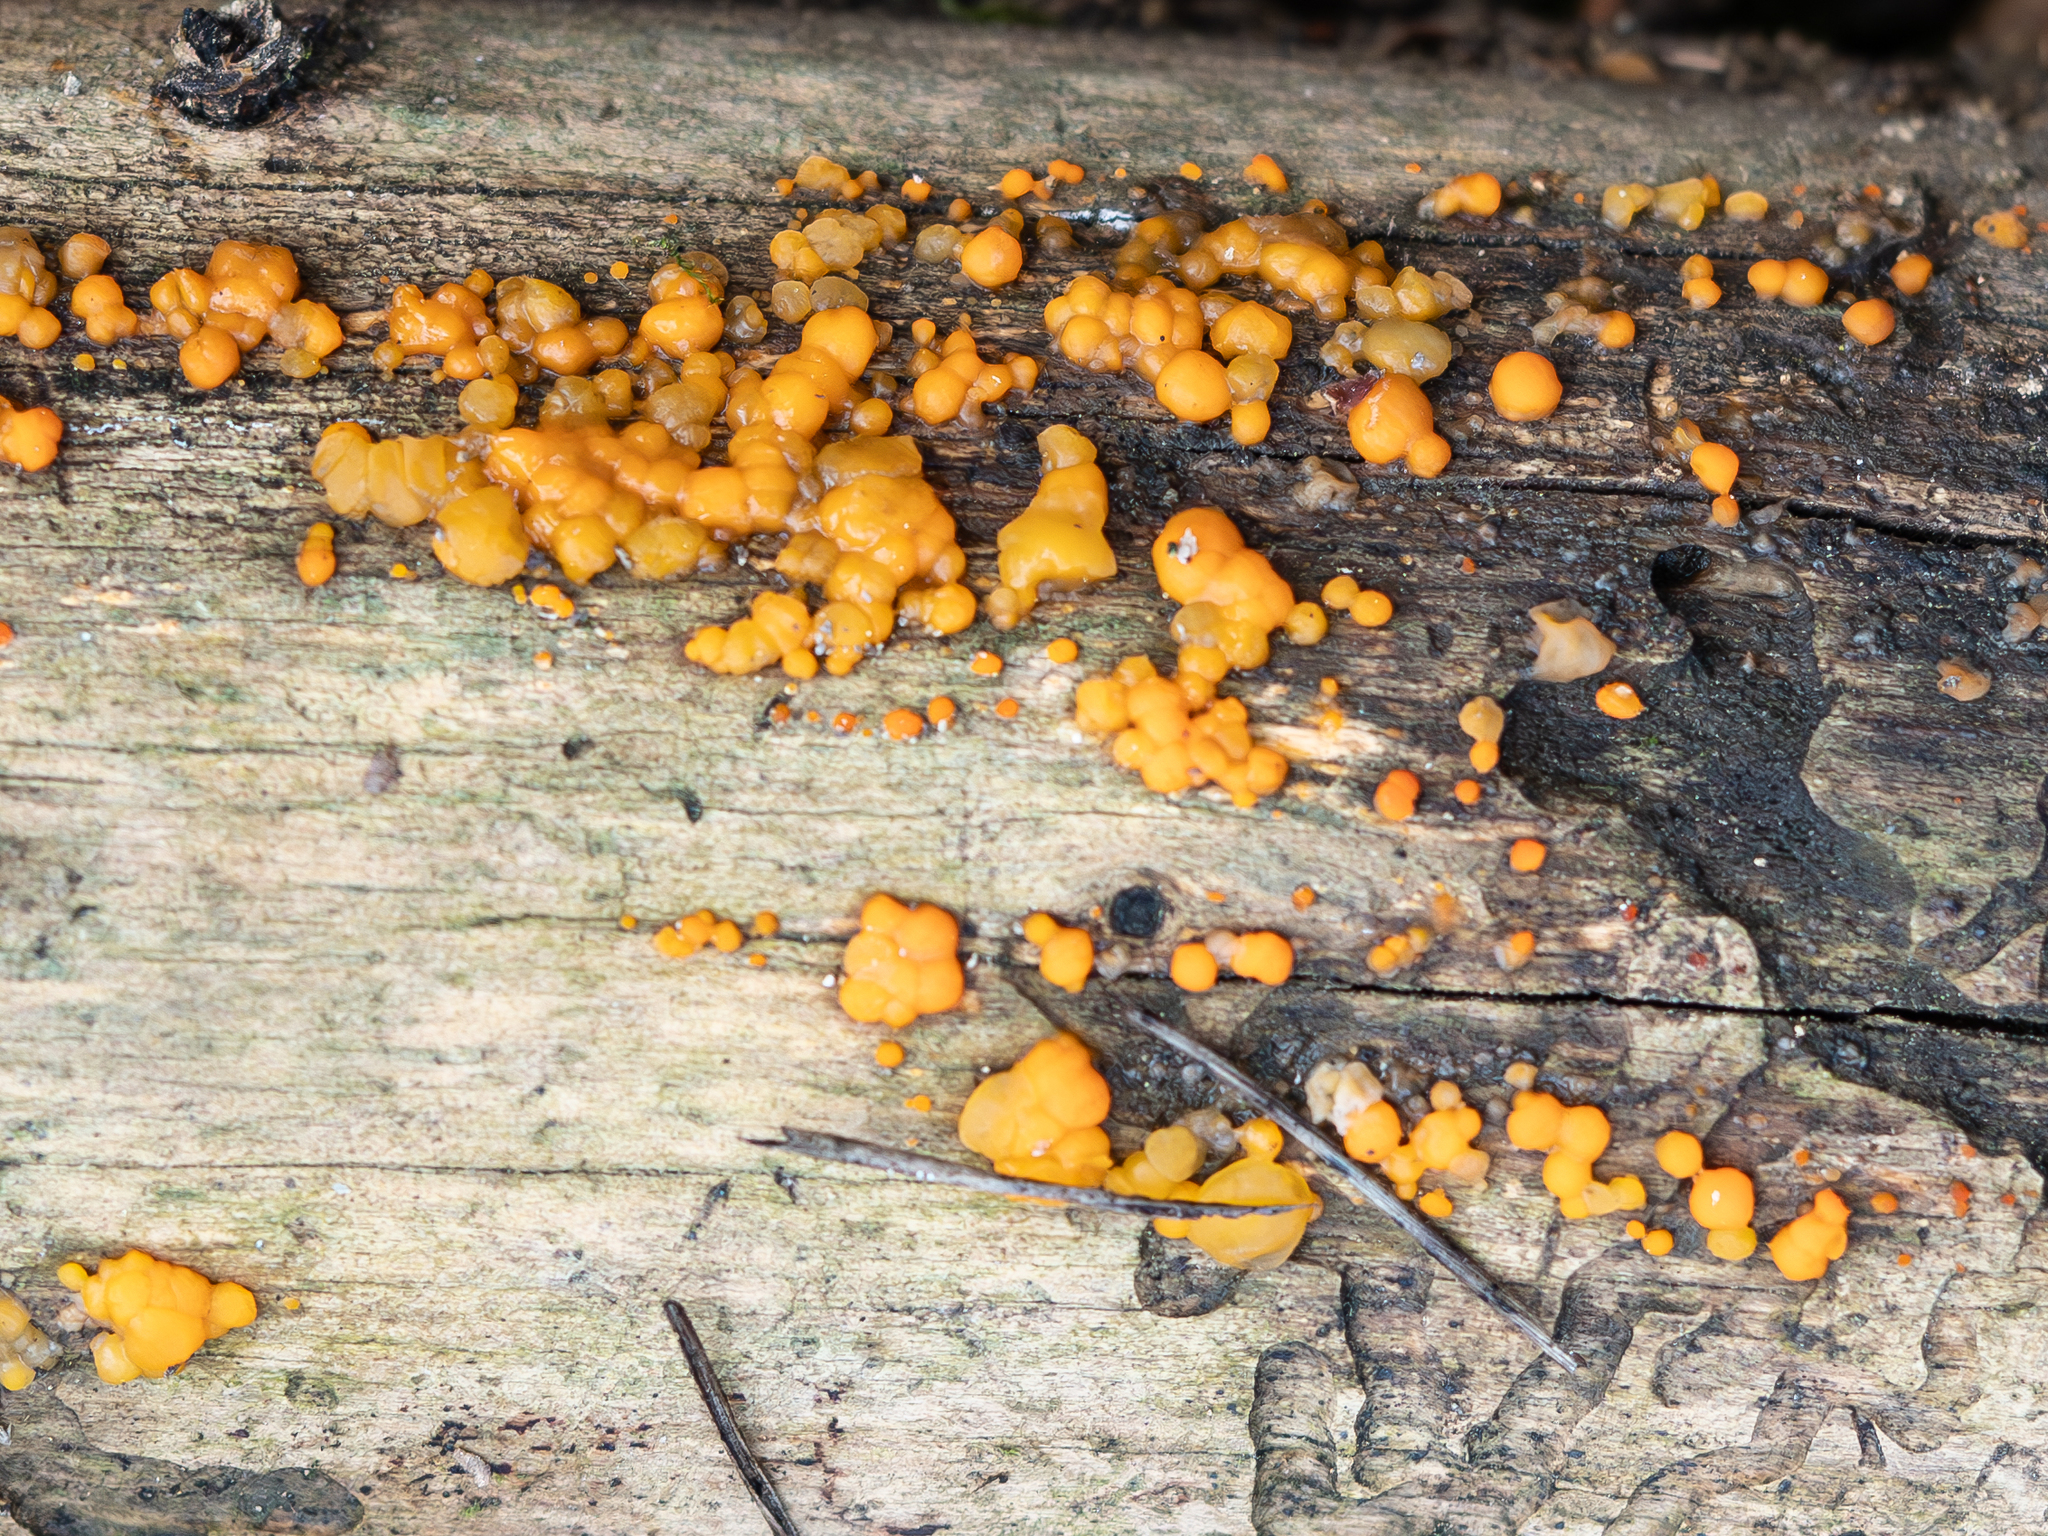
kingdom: Fungi
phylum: Basidiomycota
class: Dacrymycetes
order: Dacrymycetales
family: Dacrymycetaceae
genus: Dacrymyces
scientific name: Dacrymyces stillatus
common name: Common jelly spot
